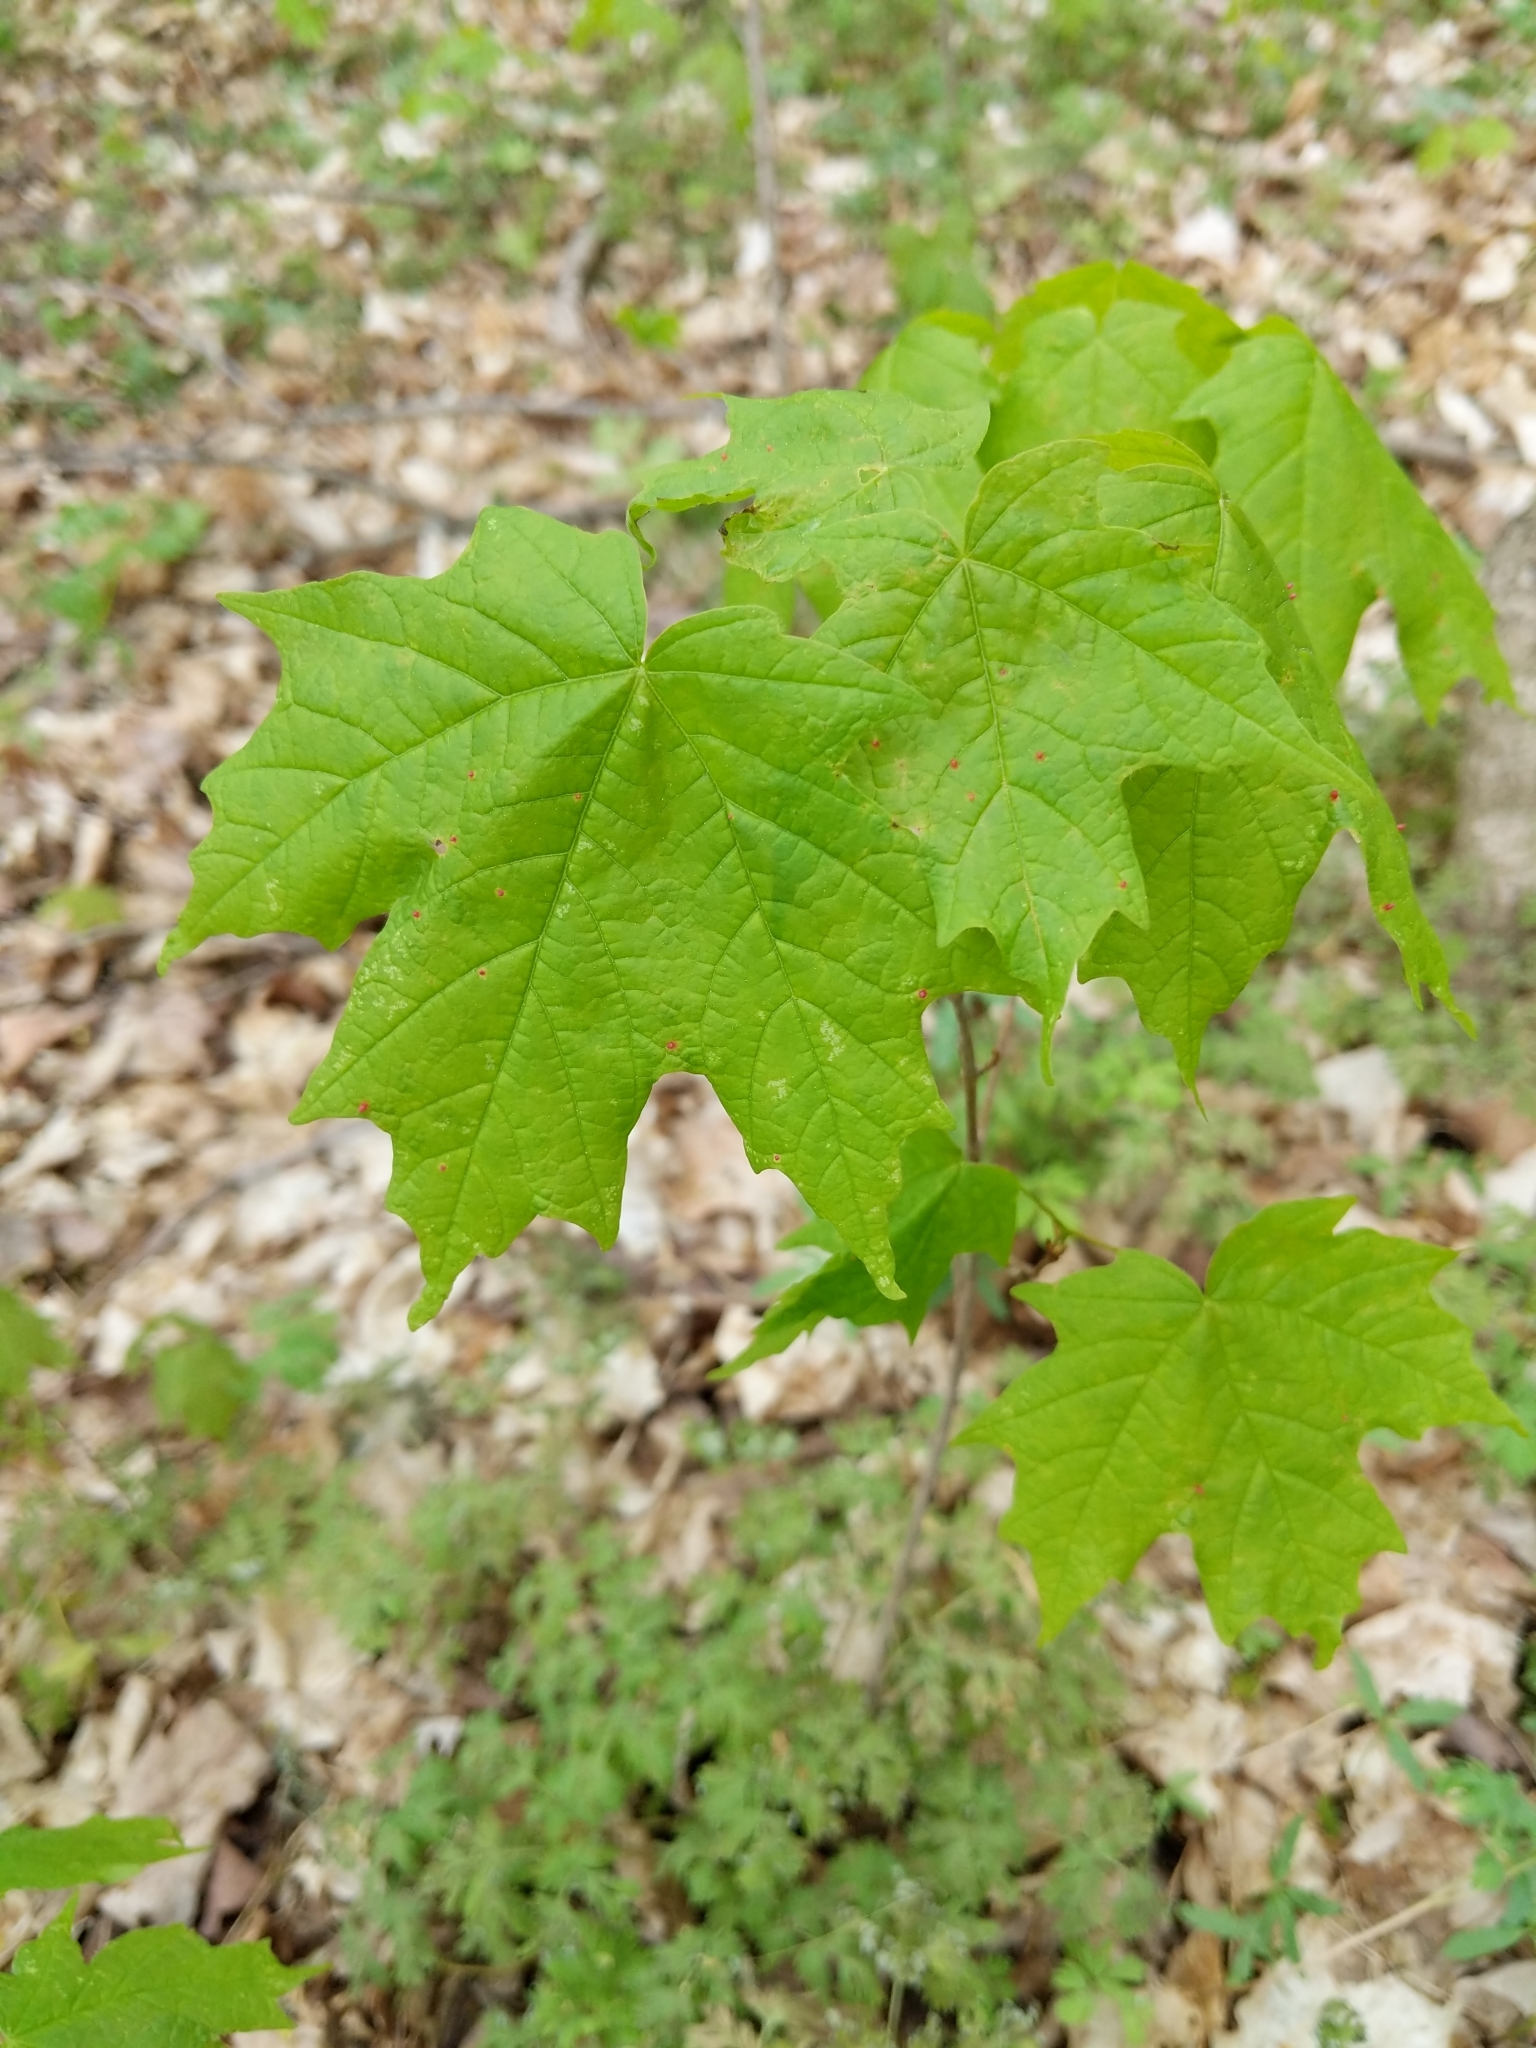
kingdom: Plantae
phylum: Tracheophyta
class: Magnoliopsida
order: Sapindales
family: Sapindaceae
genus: Acer
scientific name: Acer saccharum
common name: Sugar maple
